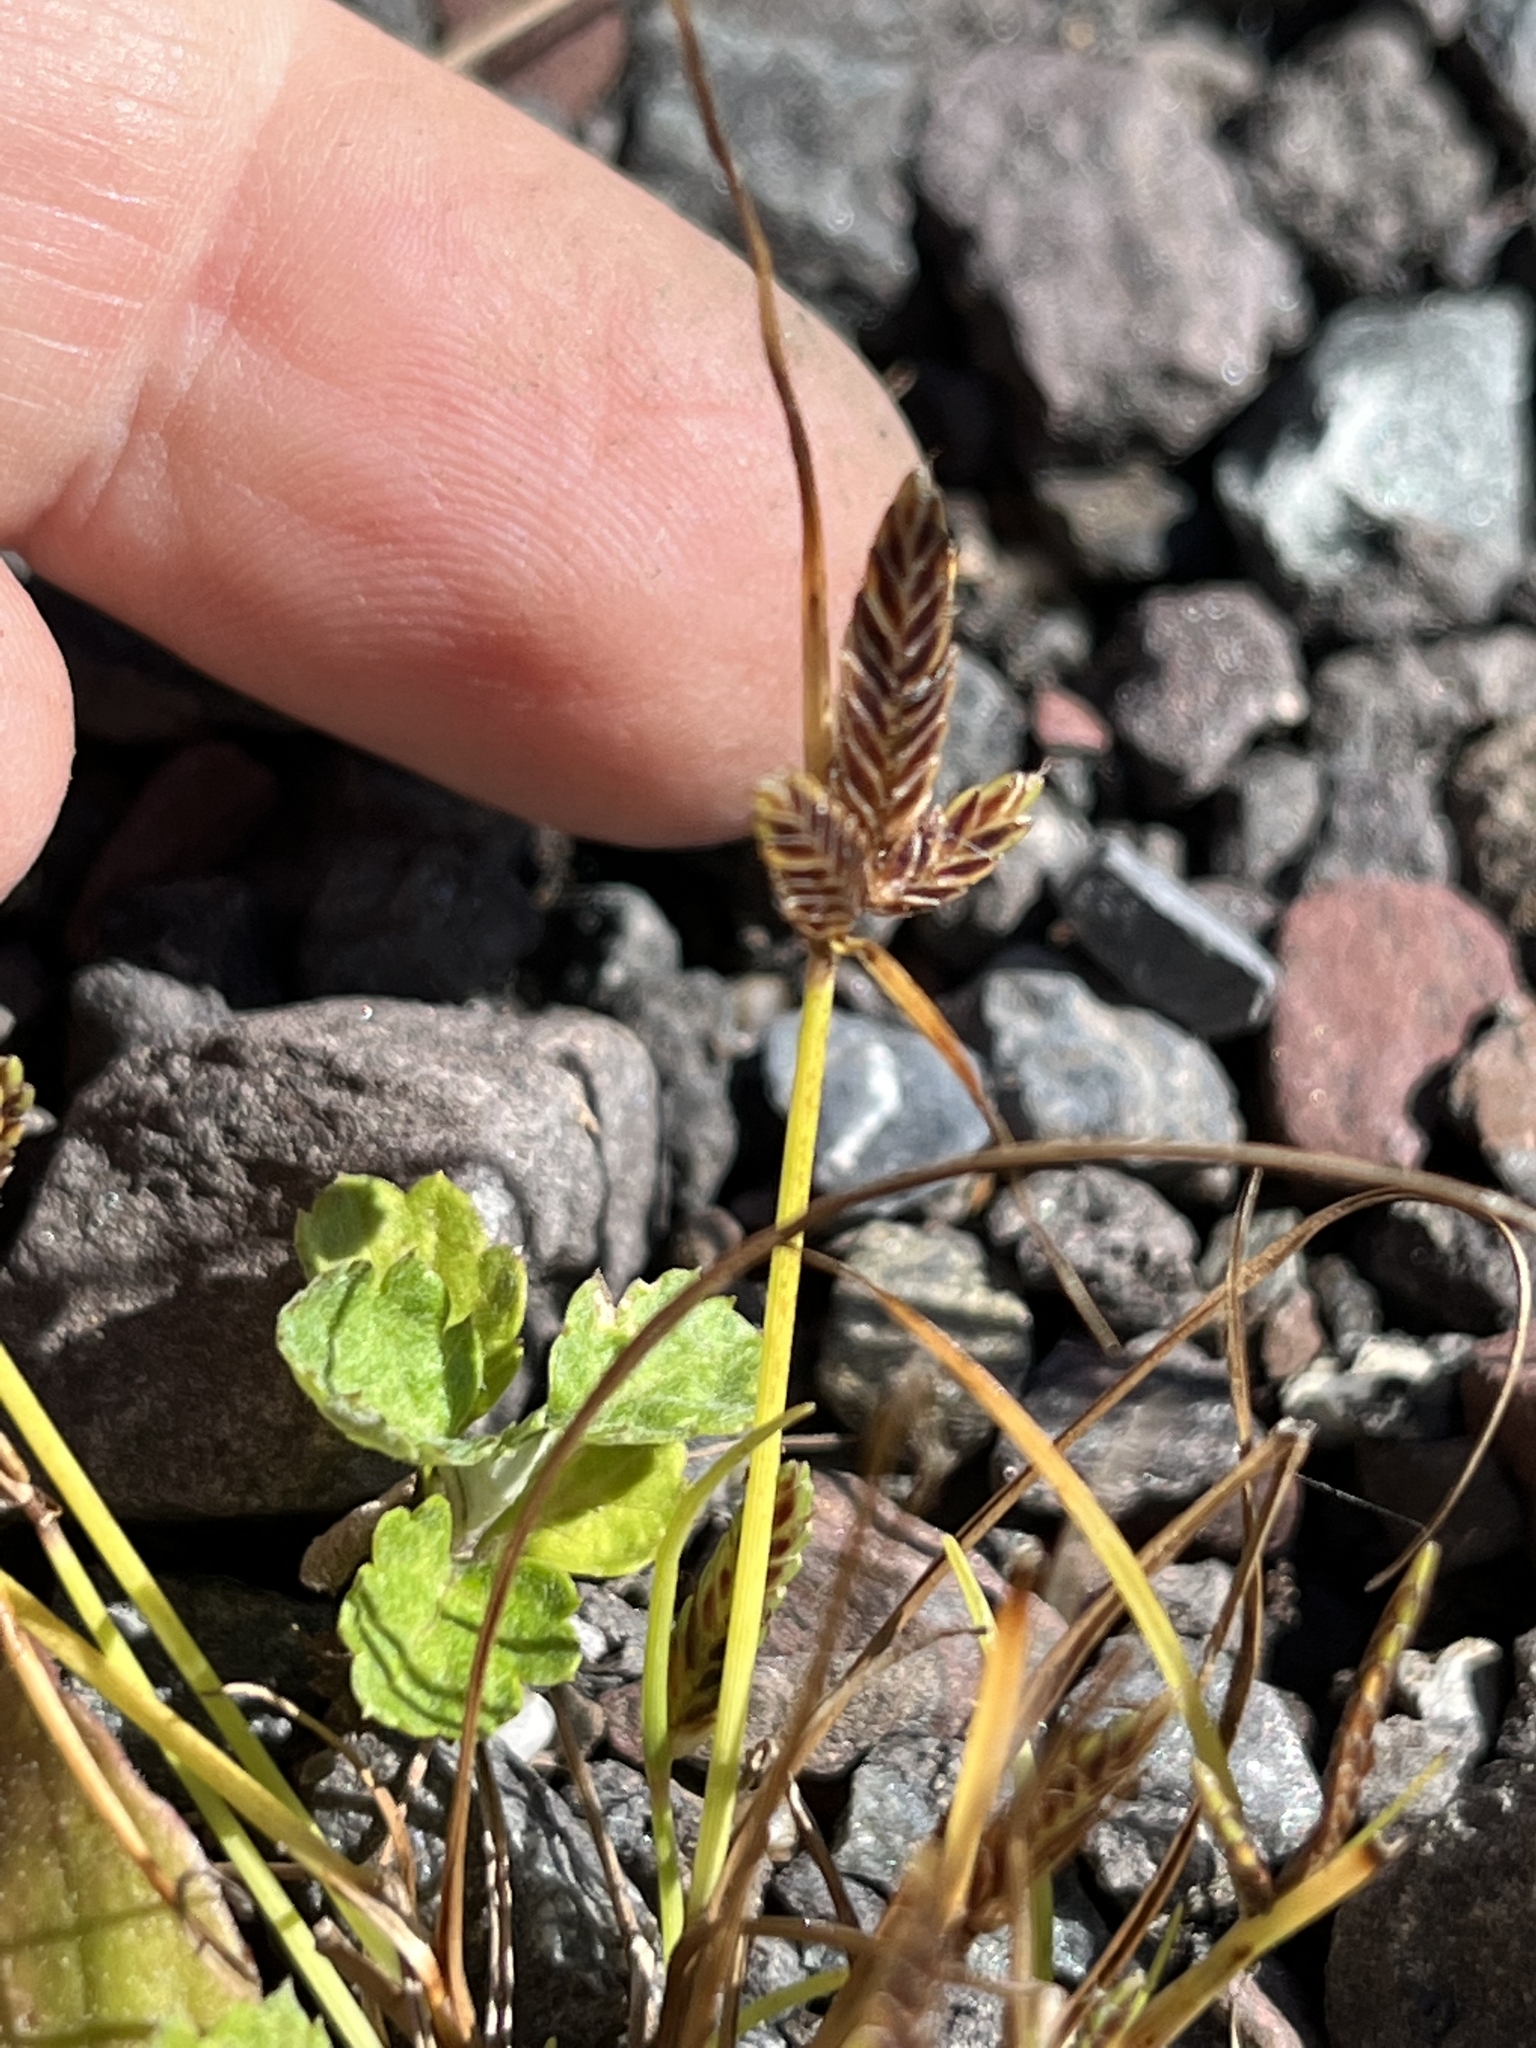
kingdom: Plantae
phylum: Tracheophyta
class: Liliopsida
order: Poales
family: Cyperaceae
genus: Cyperus
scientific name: Cyperus bipartitus
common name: Brook flatsedge
